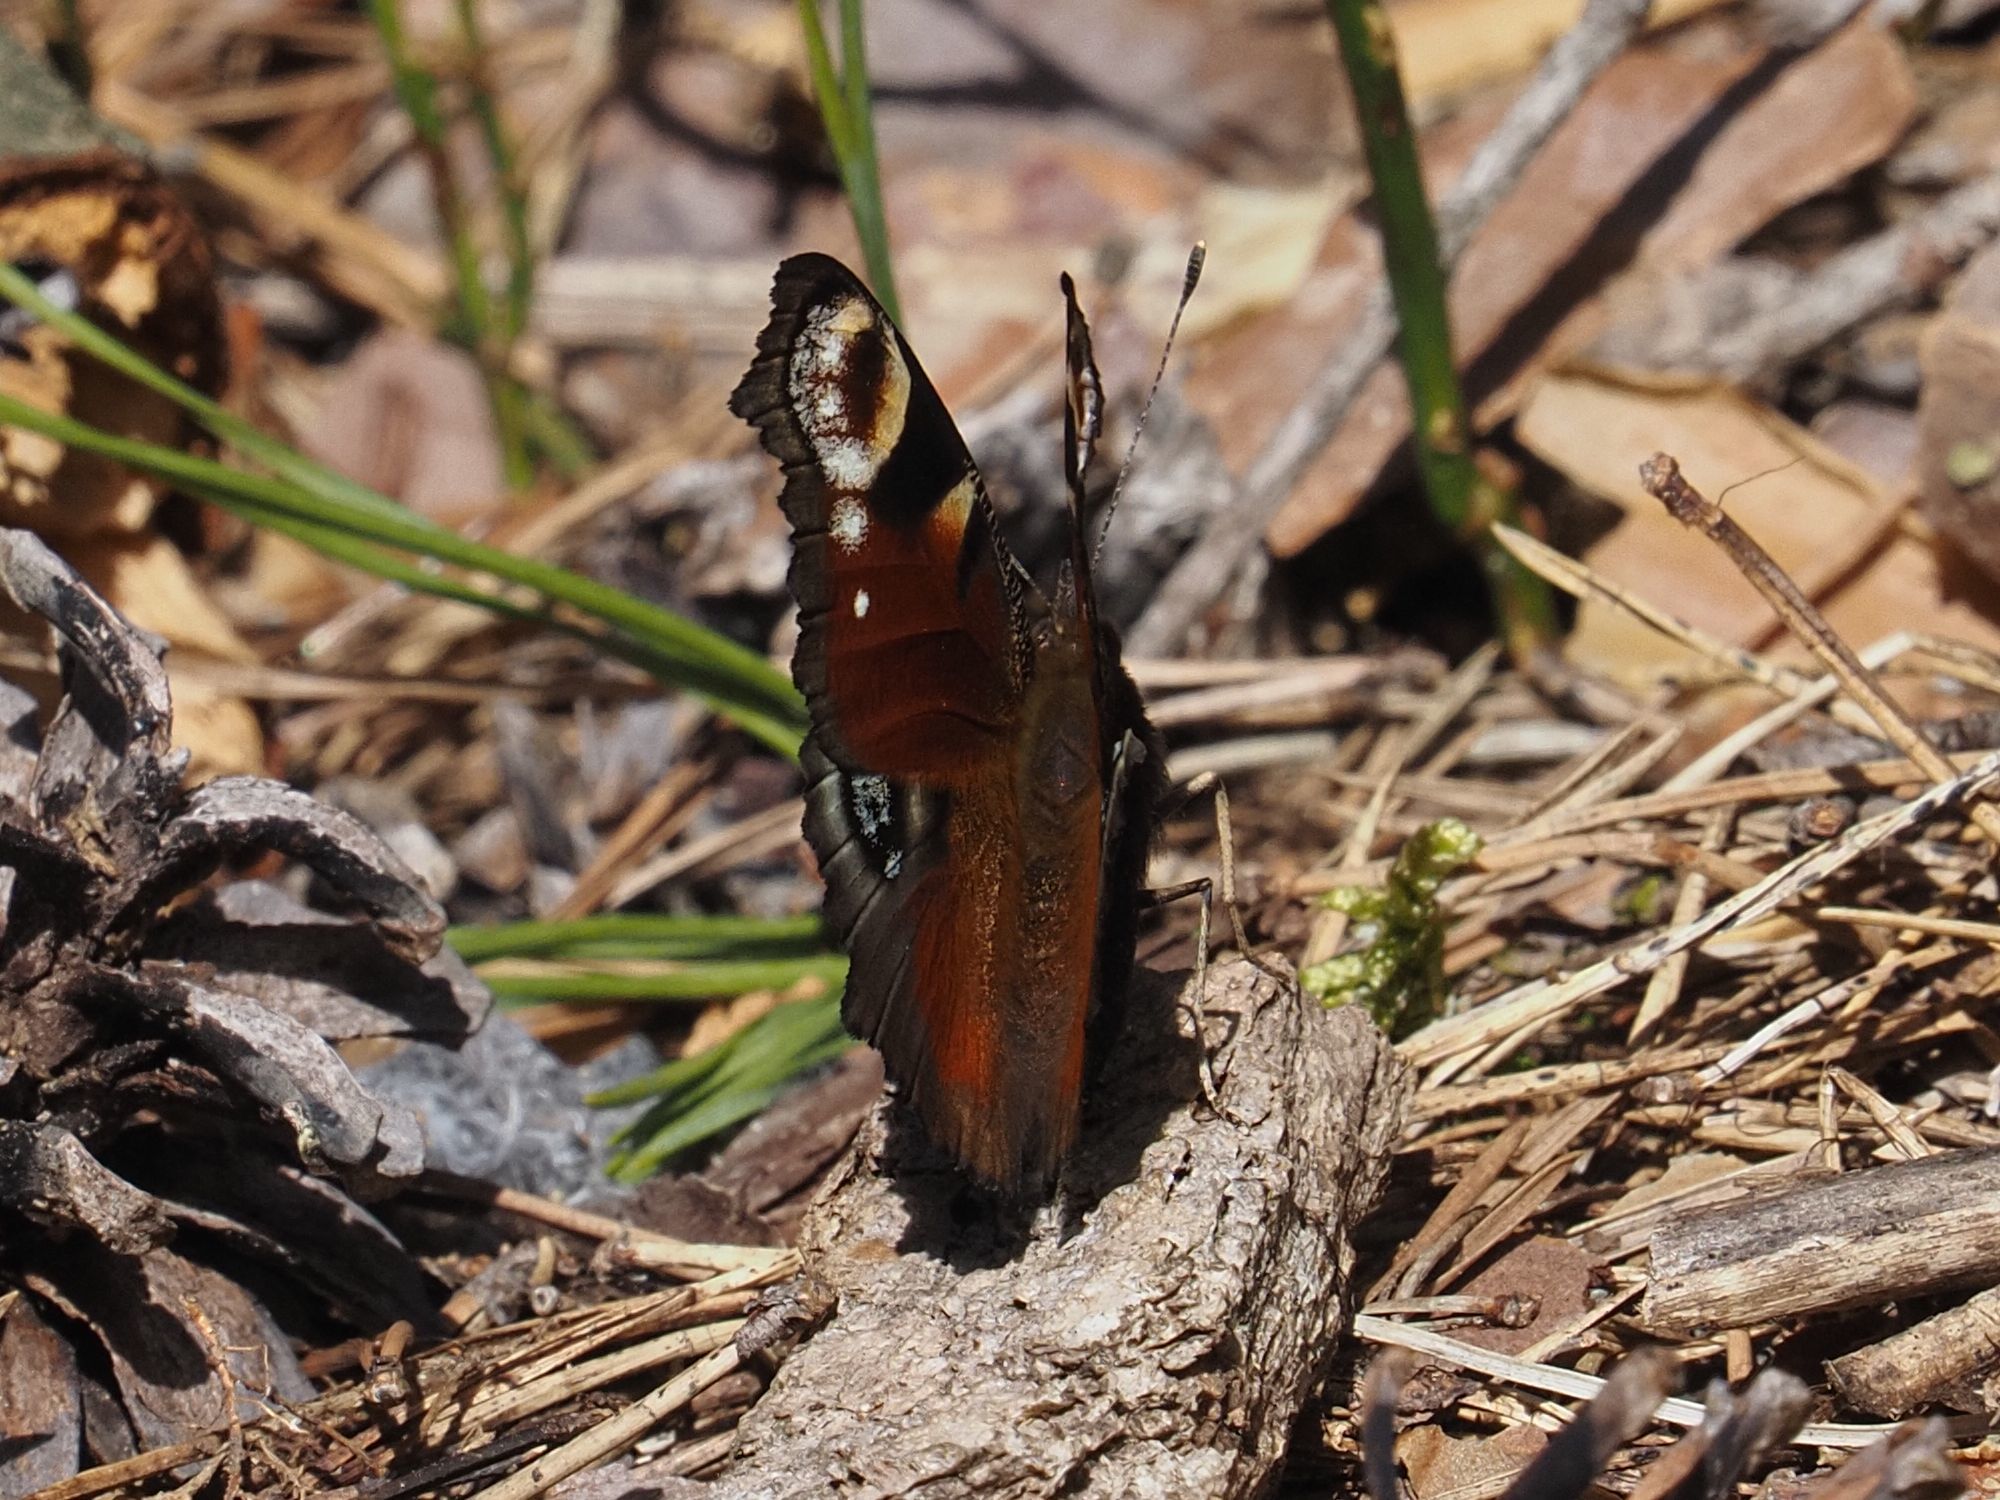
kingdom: Animalia
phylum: Arthropoda
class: Insecta
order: Lepidoptera
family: Nymphalidae
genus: Aglais
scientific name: Aglais io
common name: Peacock
